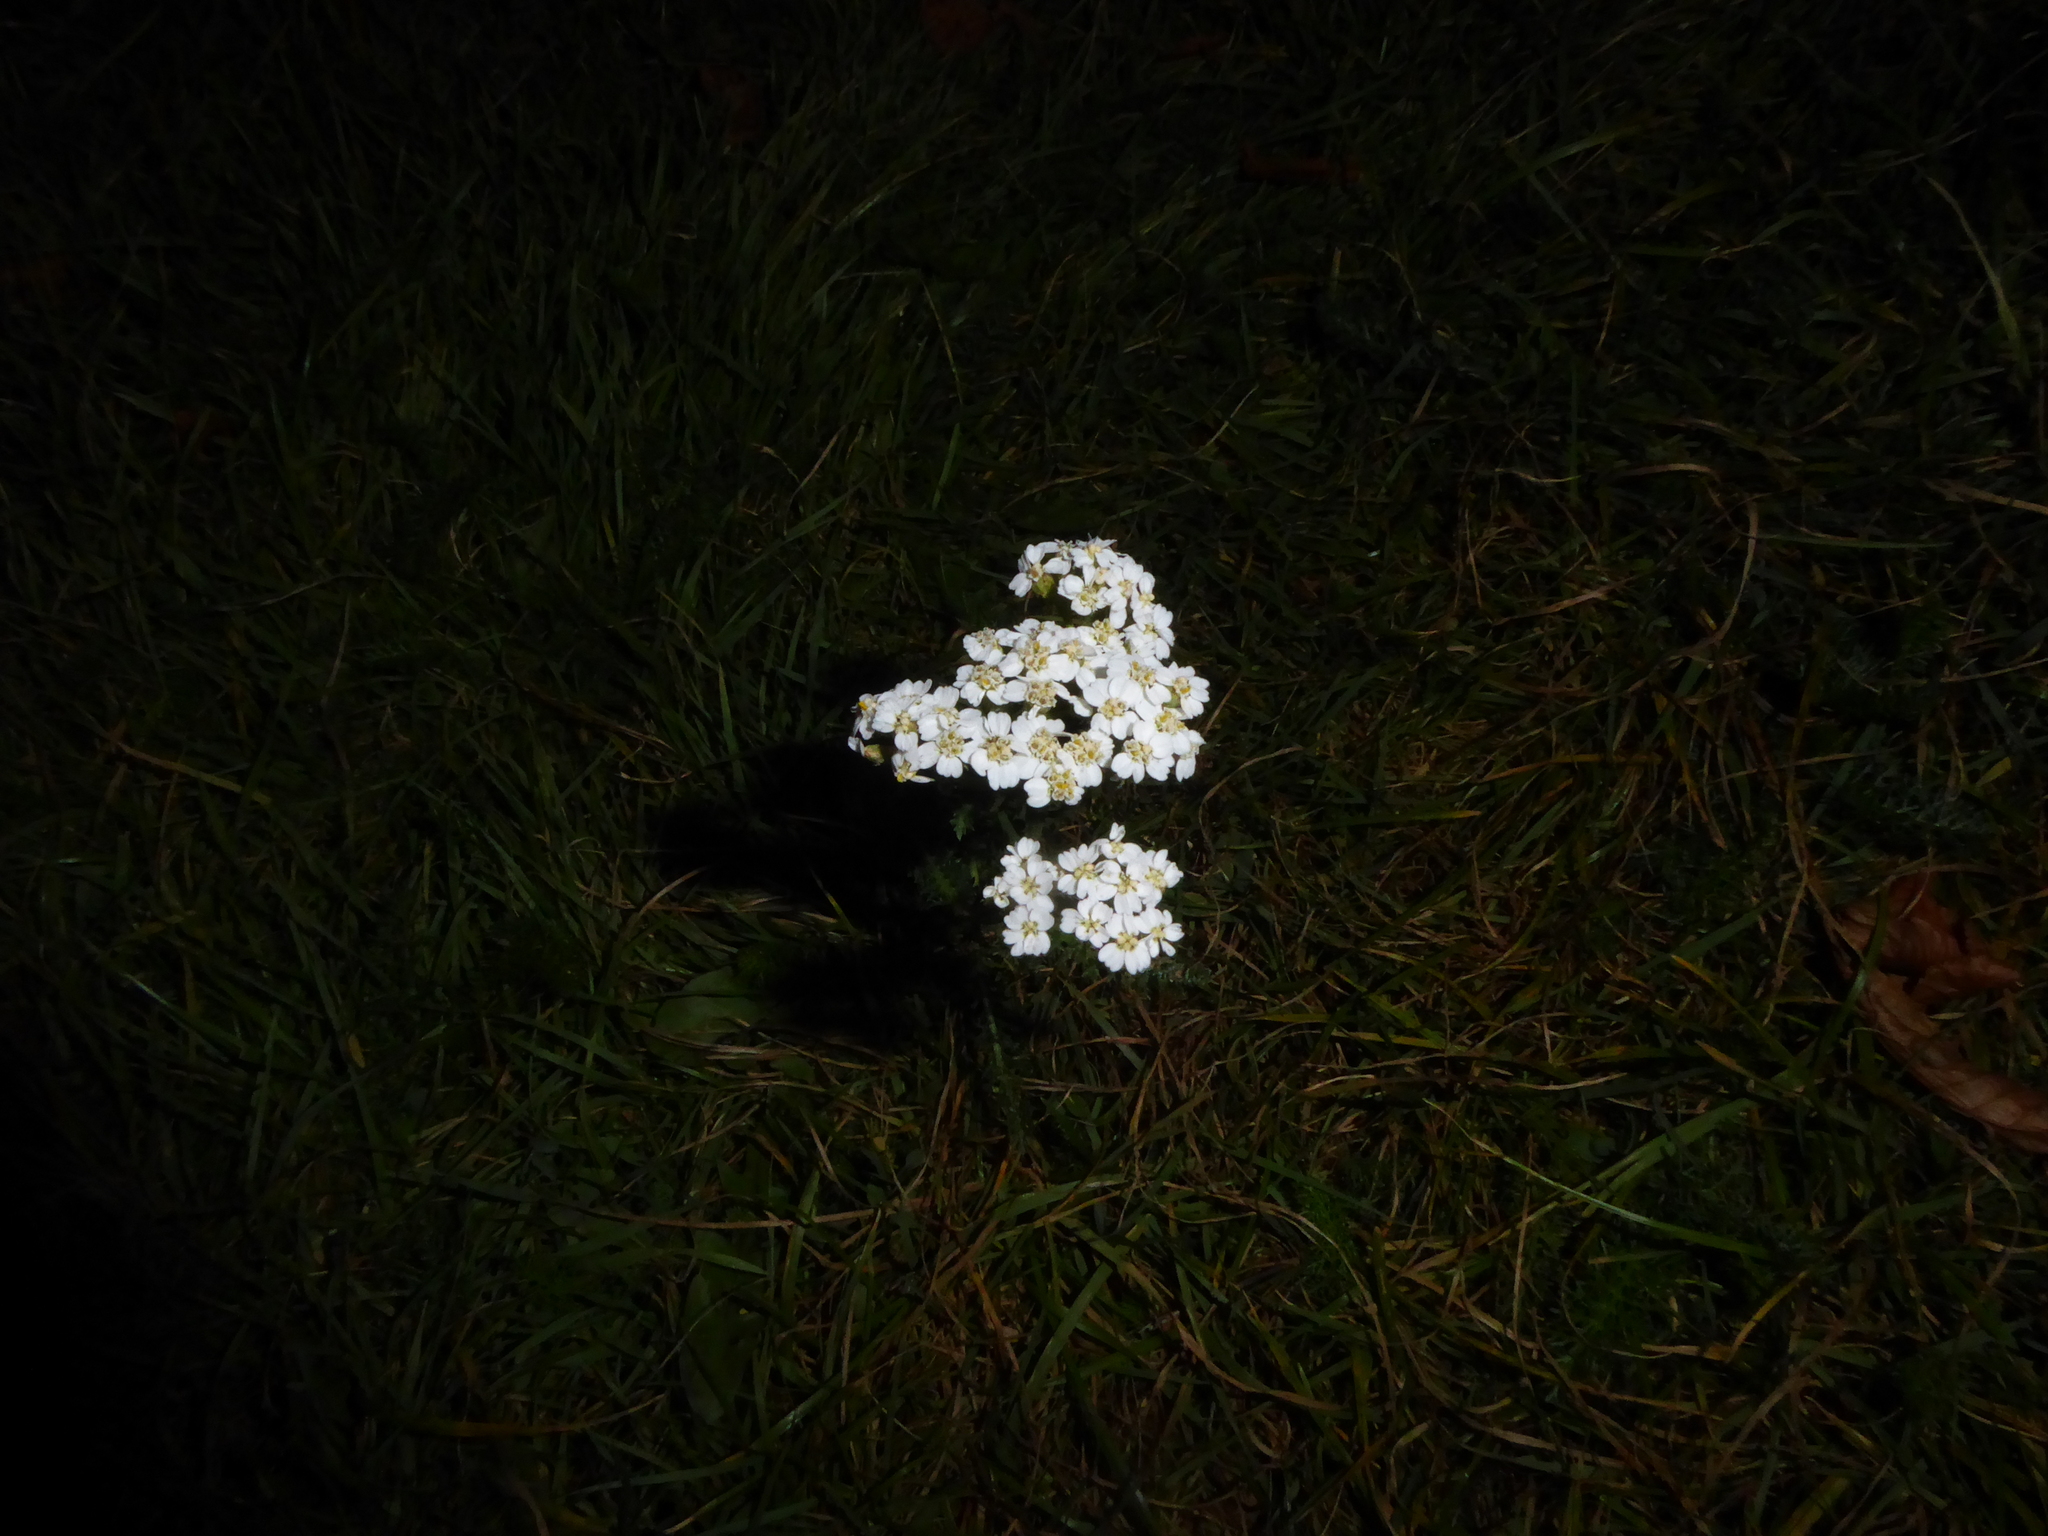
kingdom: Plantae
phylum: Tracheophyta
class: Magnoliopsida
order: Asterales
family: Asteraceae
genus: Achillea
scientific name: Achillea millefolium
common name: Yarrow
